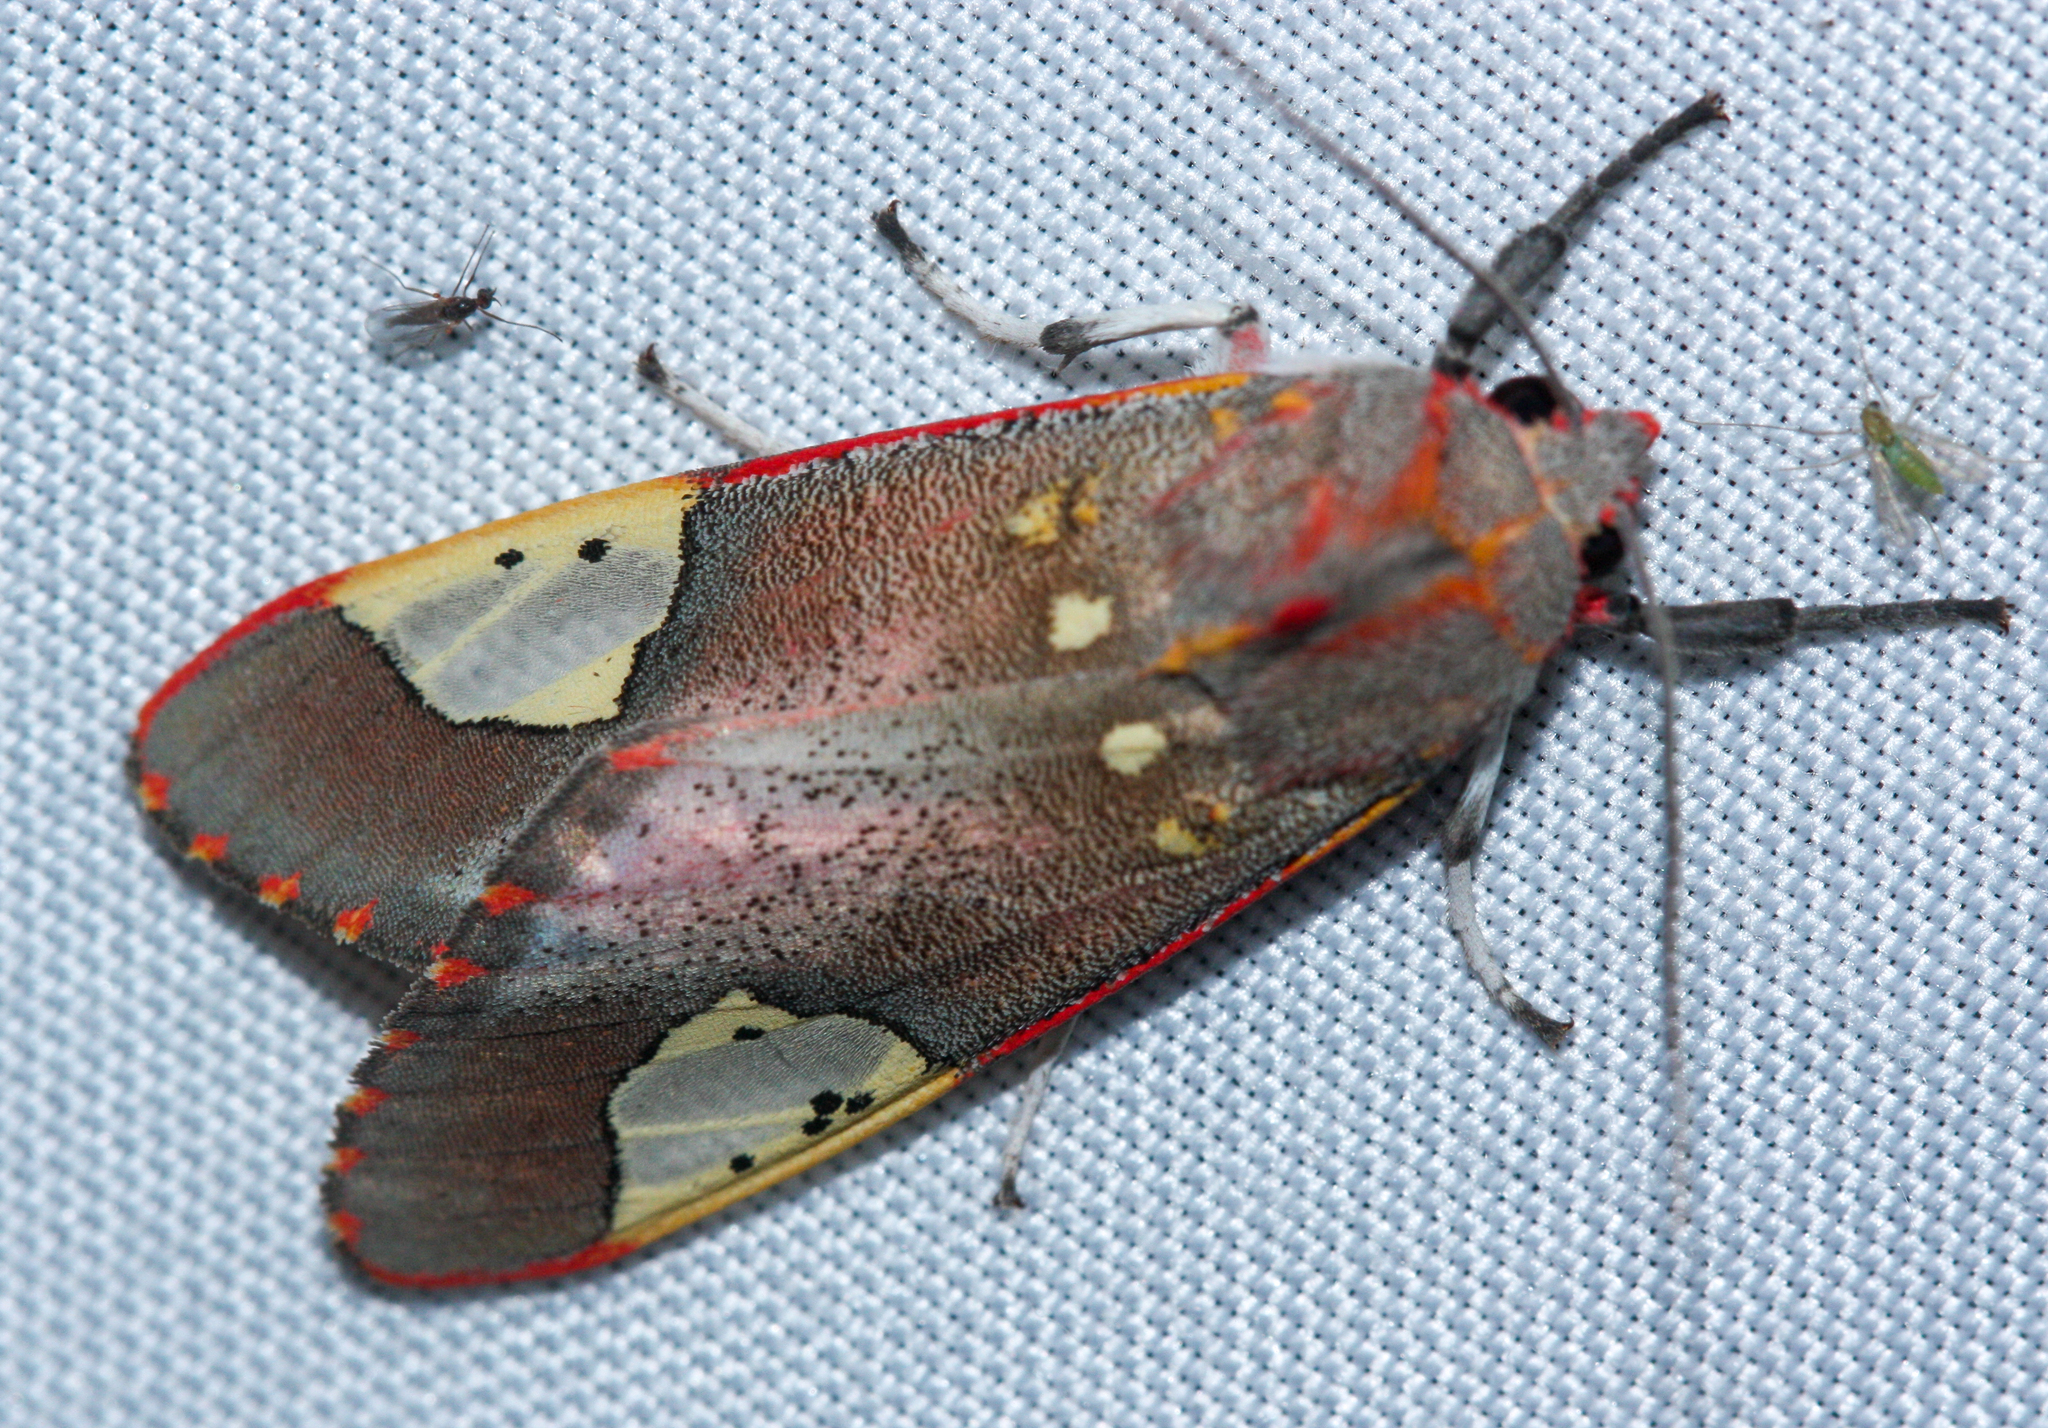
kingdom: Animalia
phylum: Arthropoda
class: Insecta
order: Lepidoptera
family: Erebidae
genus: Bertholdia
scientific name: Bertholdia trigona
